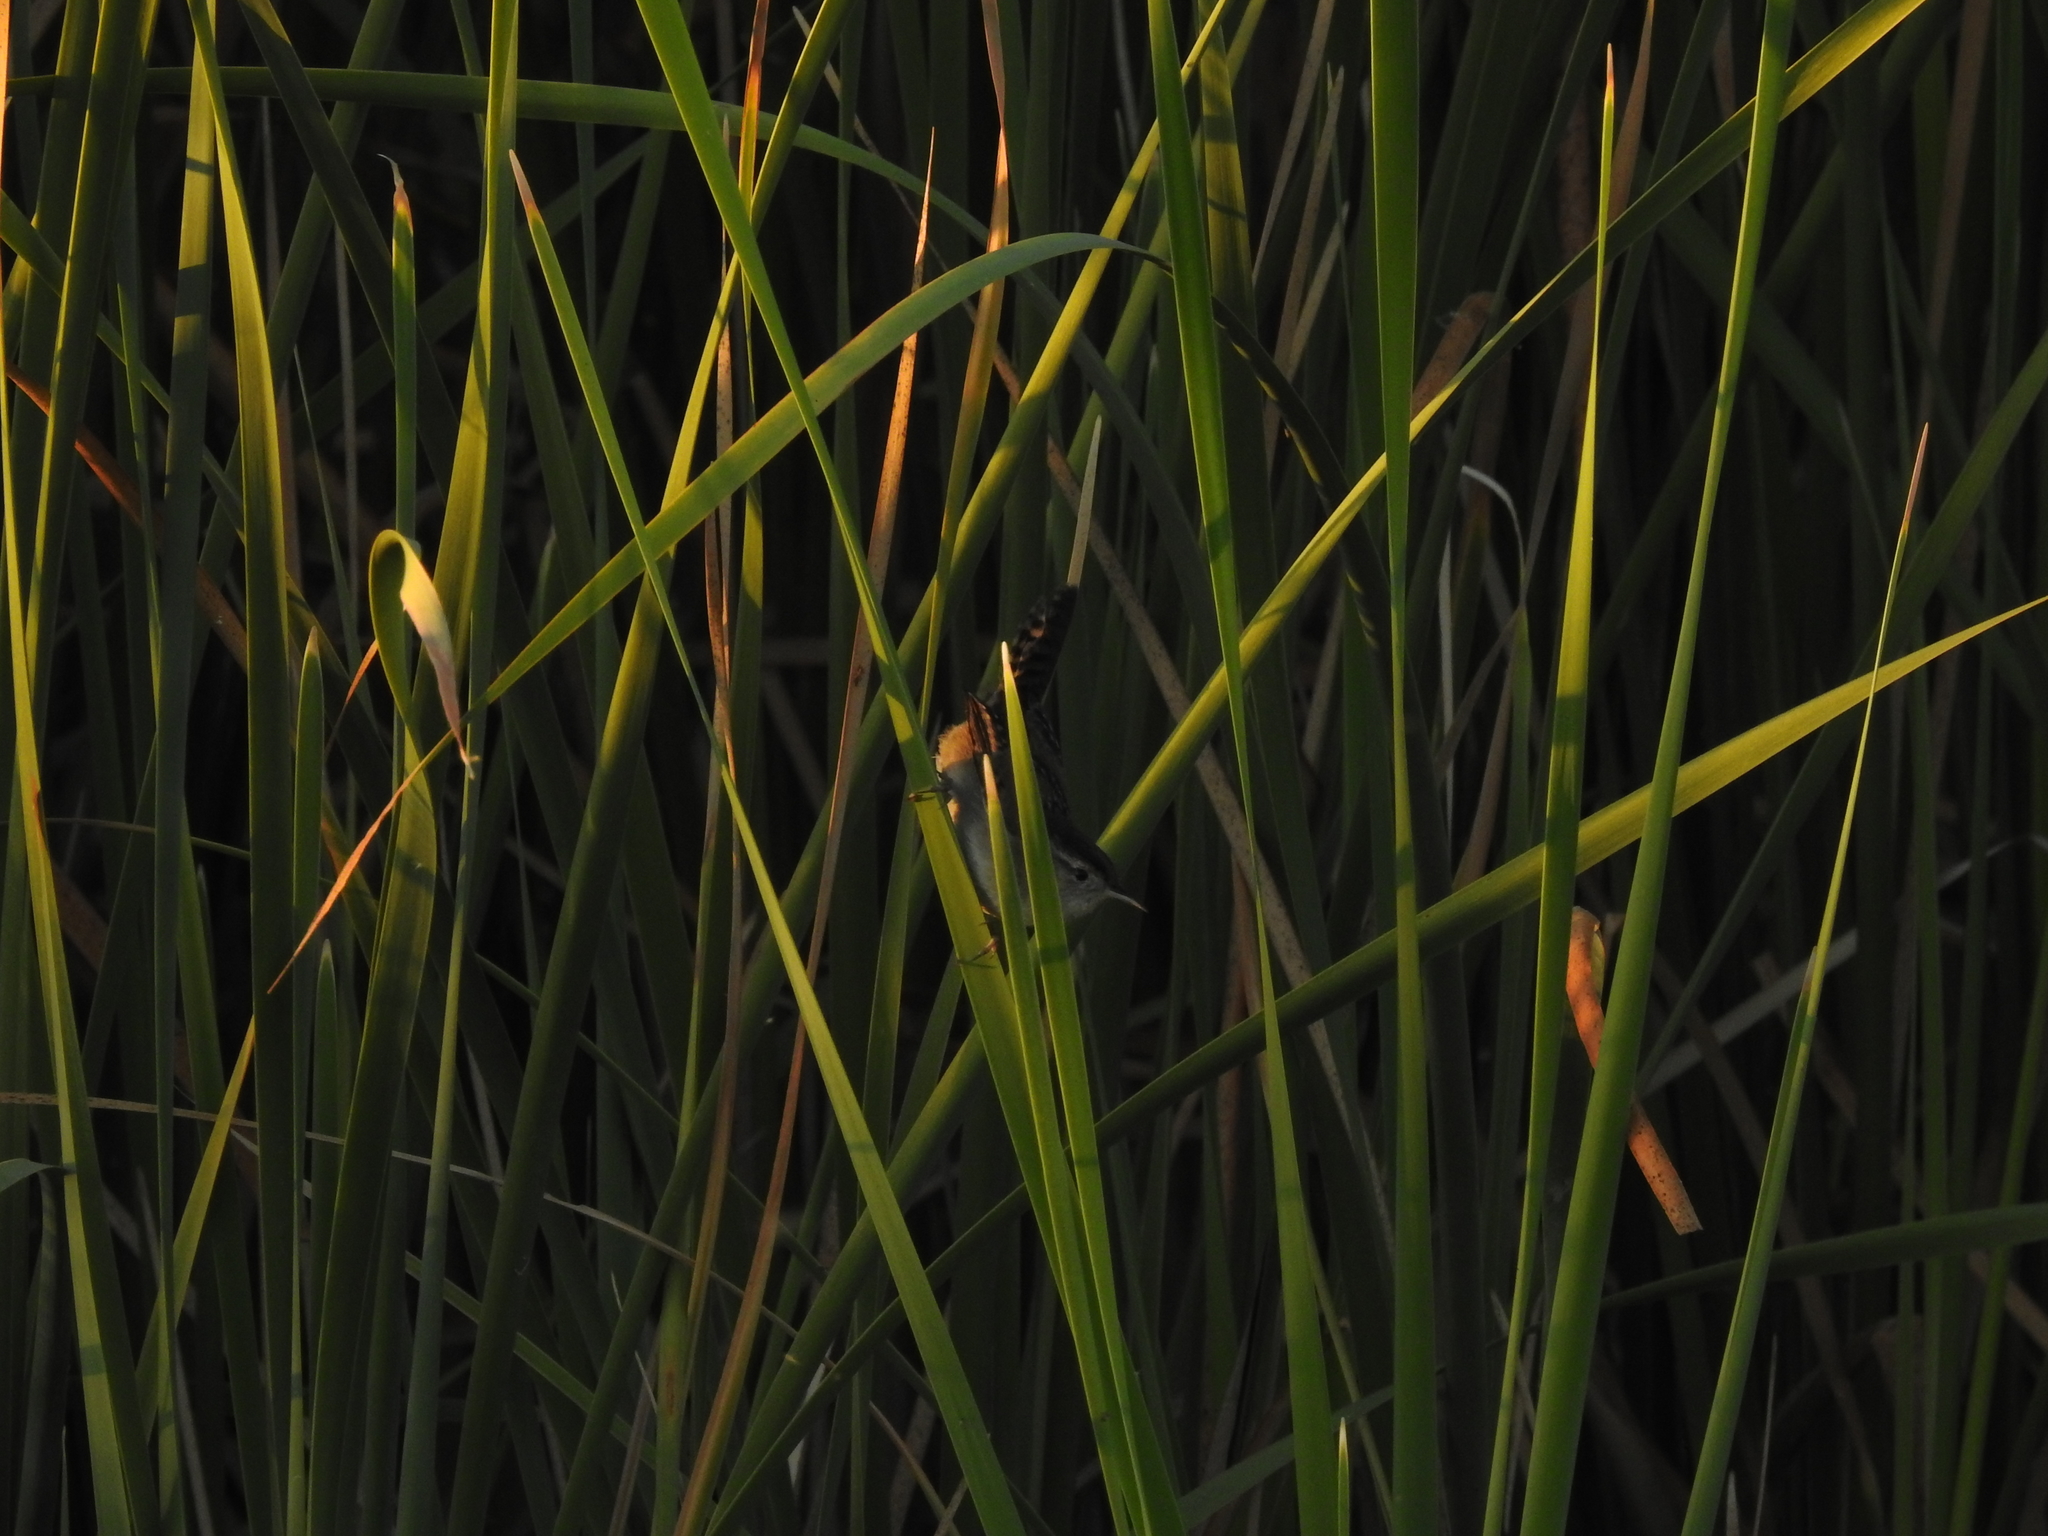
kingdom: Animalia
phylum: Chordata
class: Aves
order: Passeriformes
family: Troglodytidae
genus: Cistothorus
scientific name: Cistothorus palustris
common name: Marsh wren
